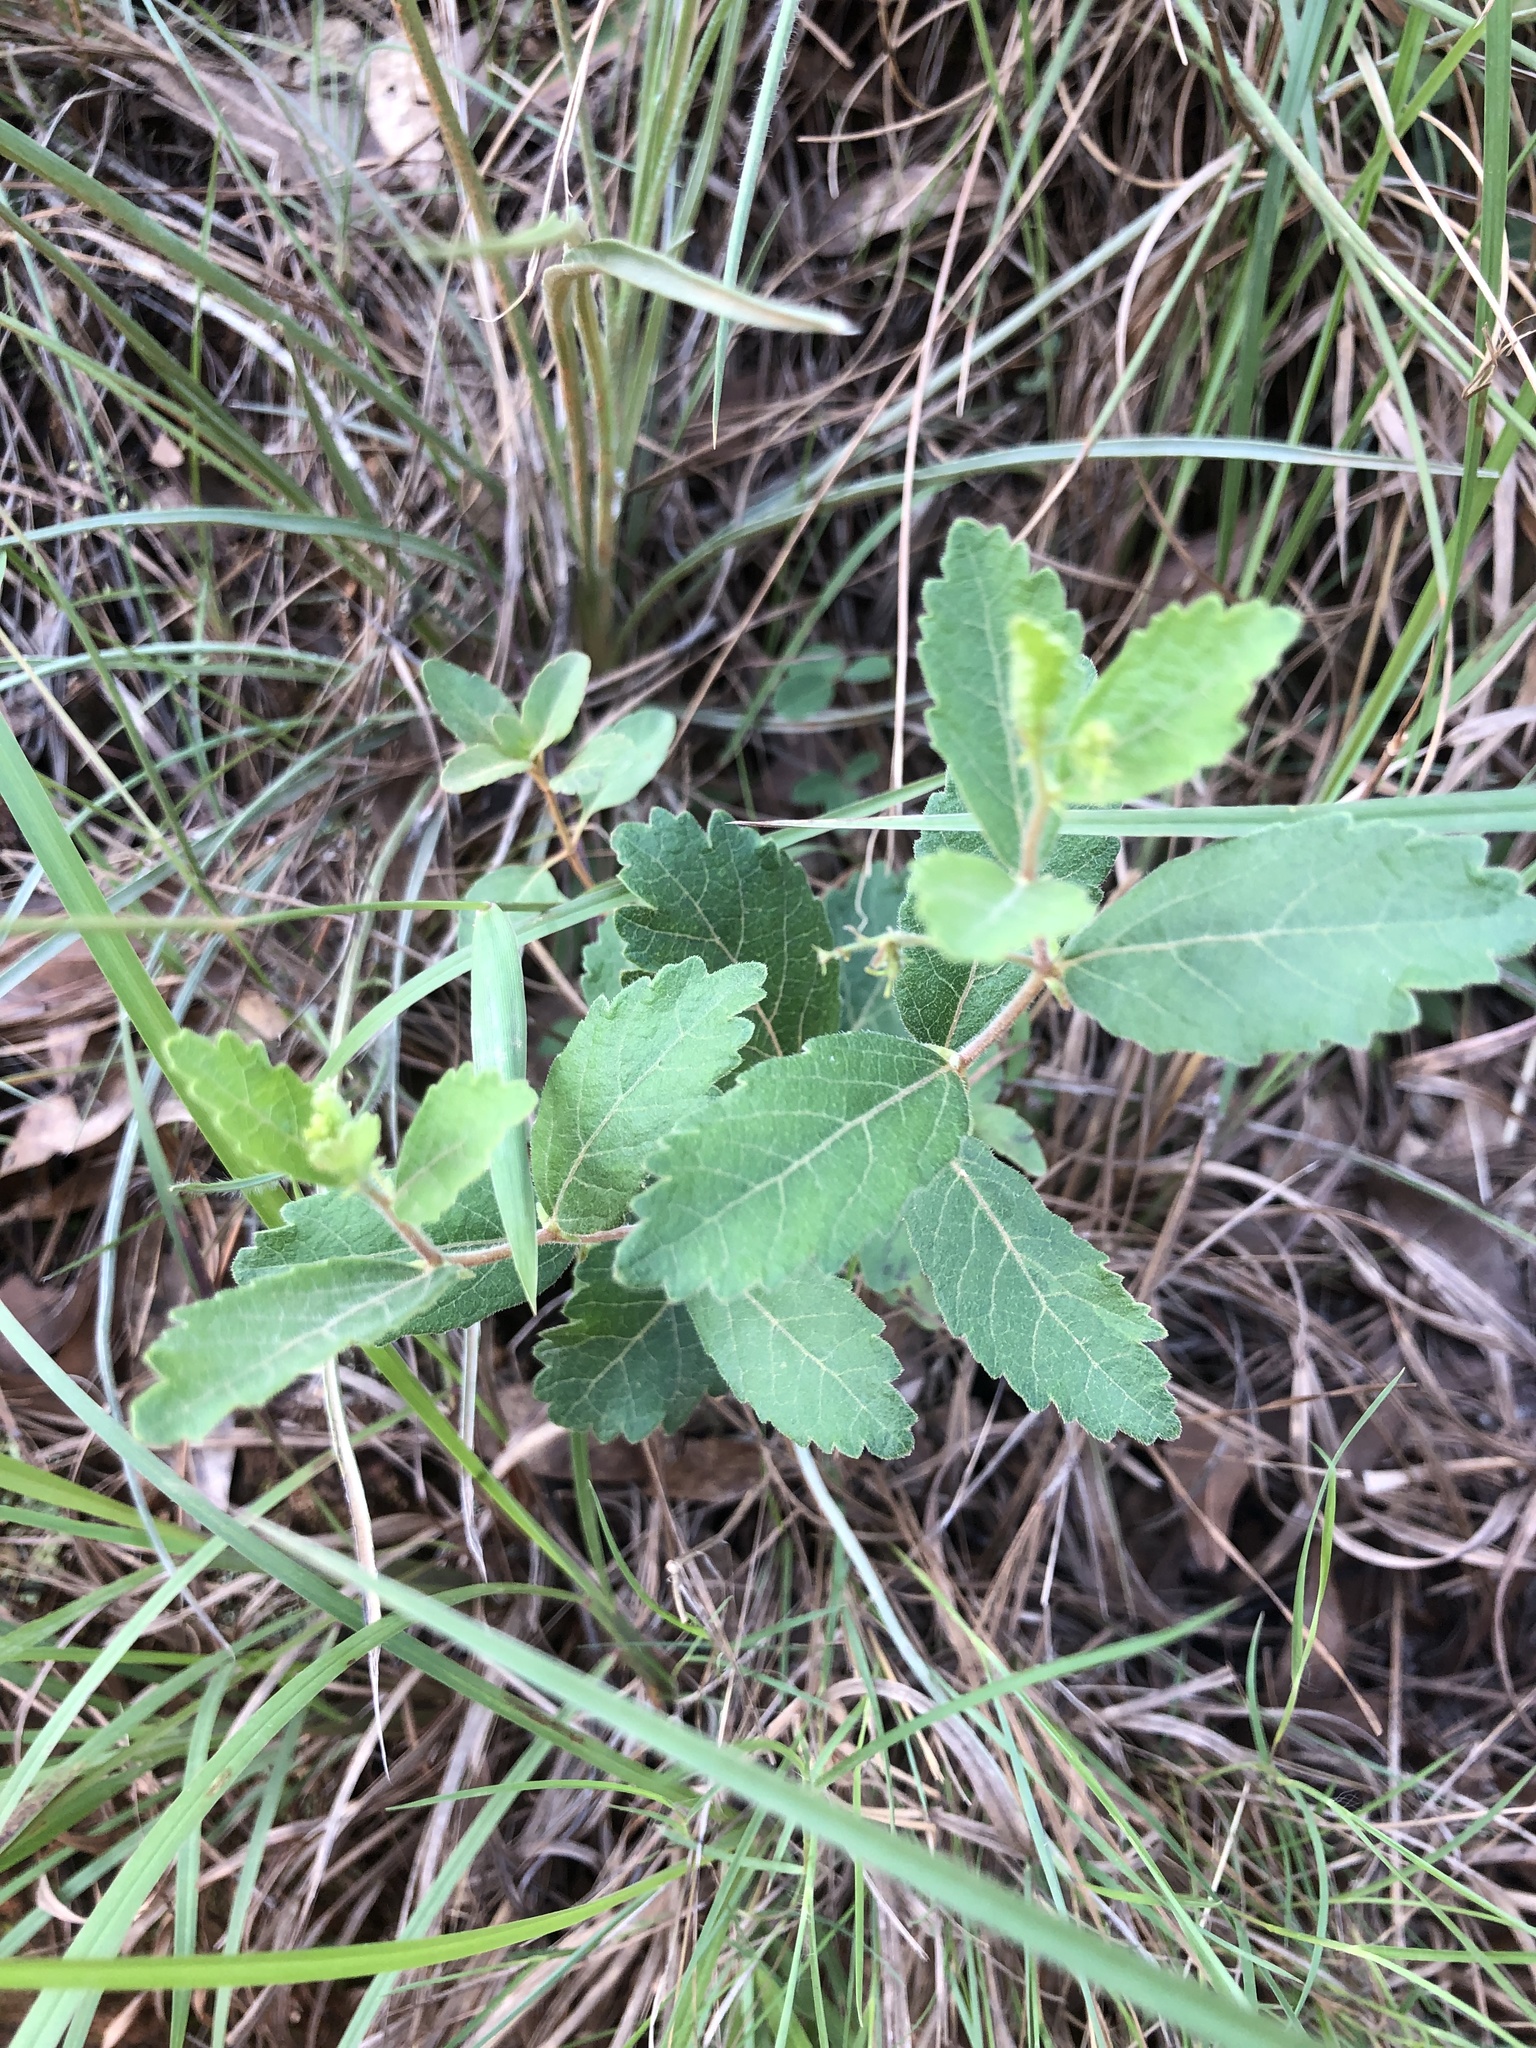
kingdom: Plantae
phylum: Tracheophyta
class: Magnoliopsida
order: Malpighiales
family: Euphorbiaceae
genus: Tragia
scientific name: Tragia smallii
